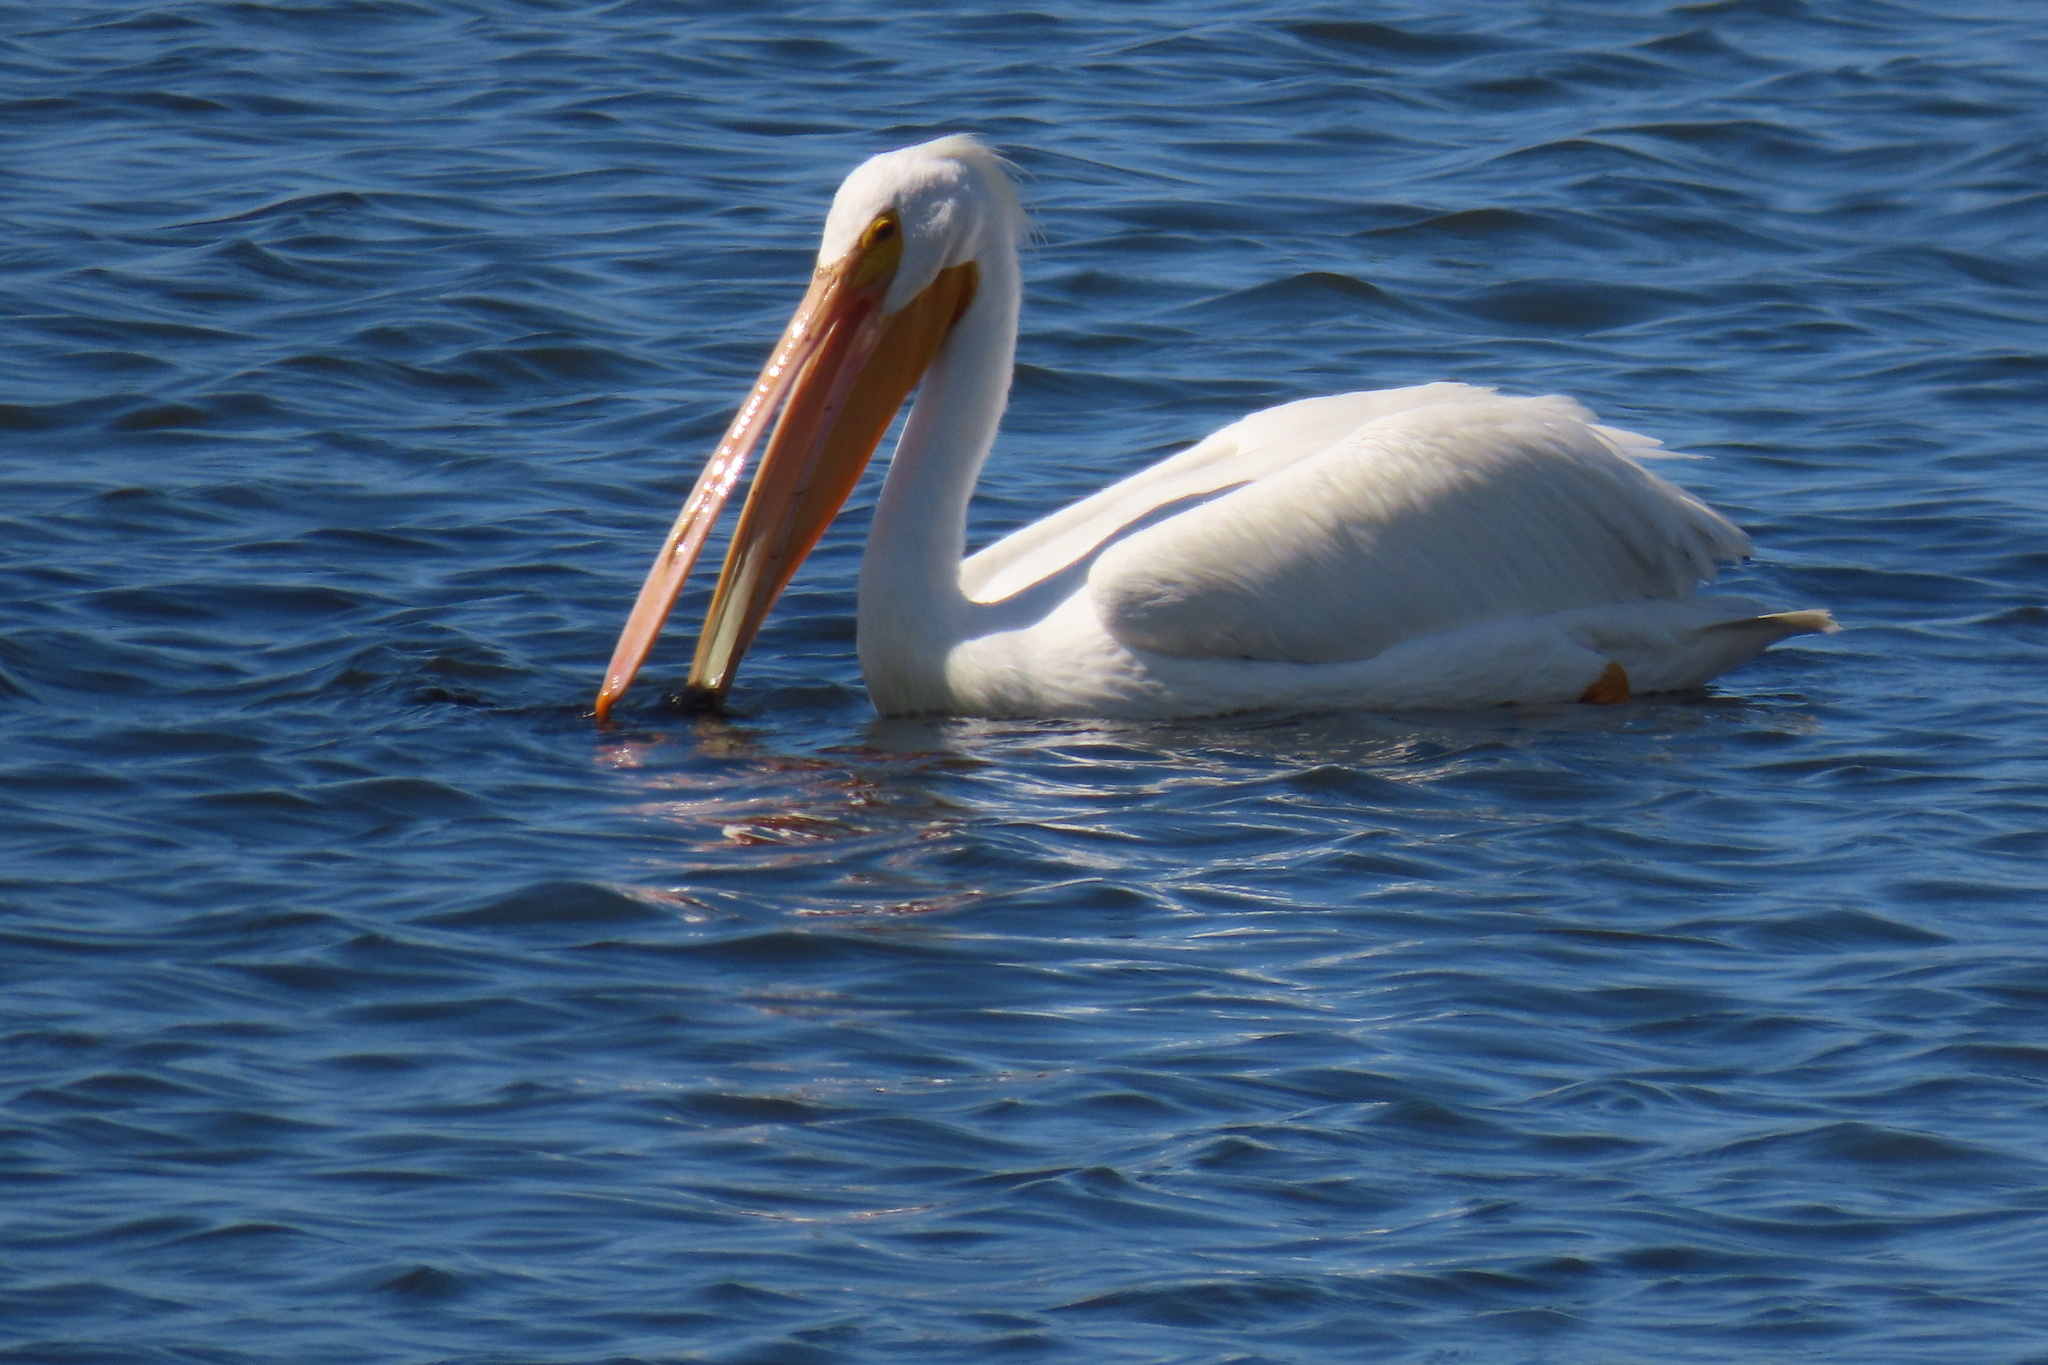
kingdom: Animalia
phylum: Chordata
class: Aves
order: Pelecaniformes
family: Pelecanidae
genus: Pelecanus
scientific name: Pelecanus erythrorhynchos
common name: American white pelican
